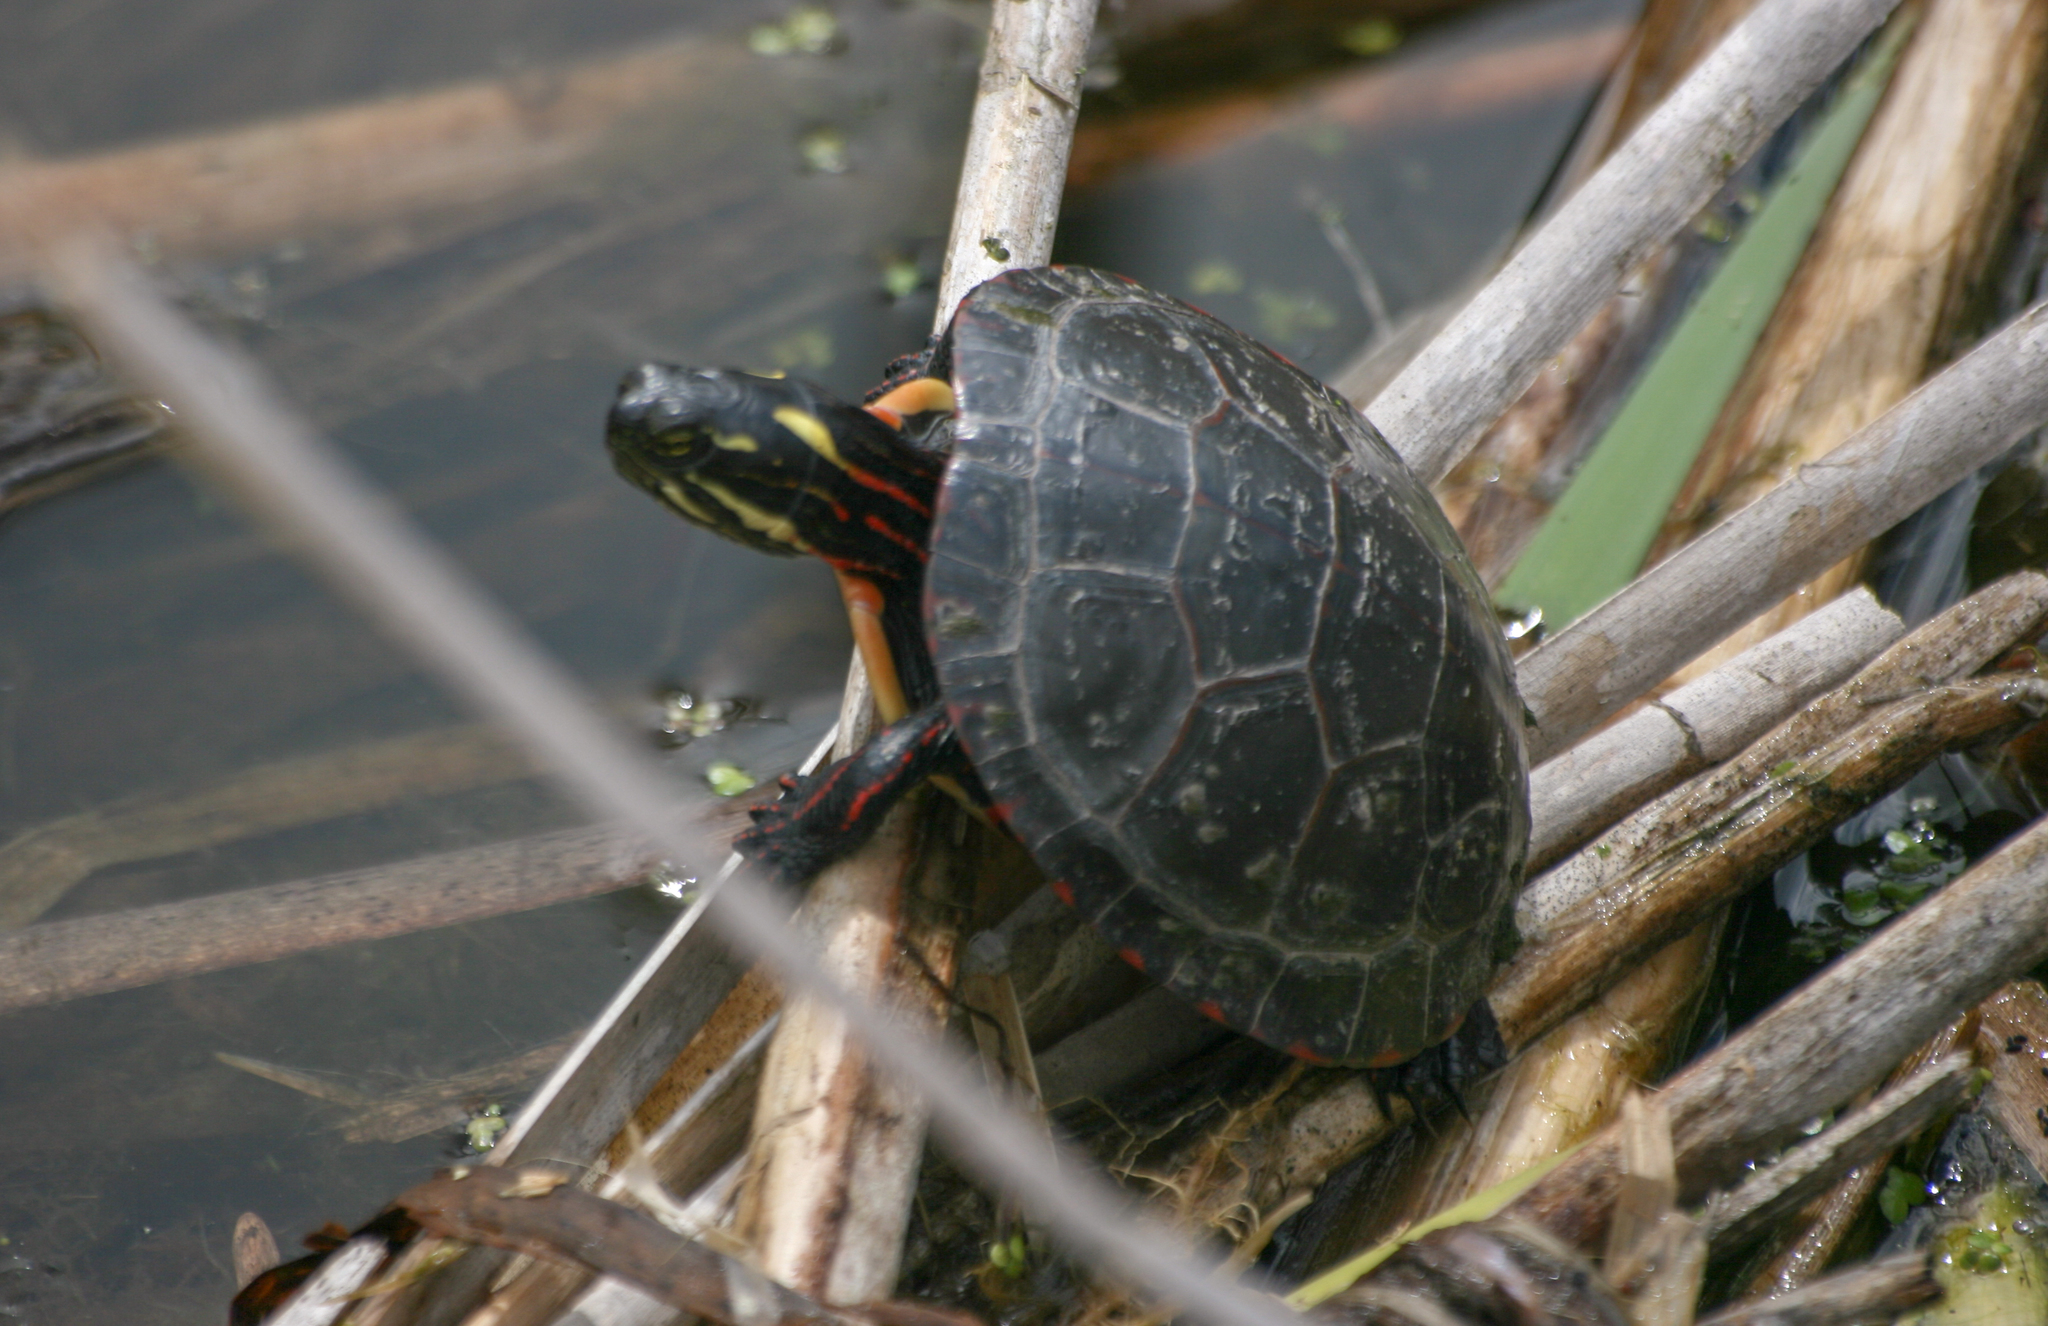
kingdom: Animalia
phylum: Chordata
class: Testudines
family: Emydidae
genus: Chrysemys
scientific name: Chrysemys picta
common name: Painted turtle
